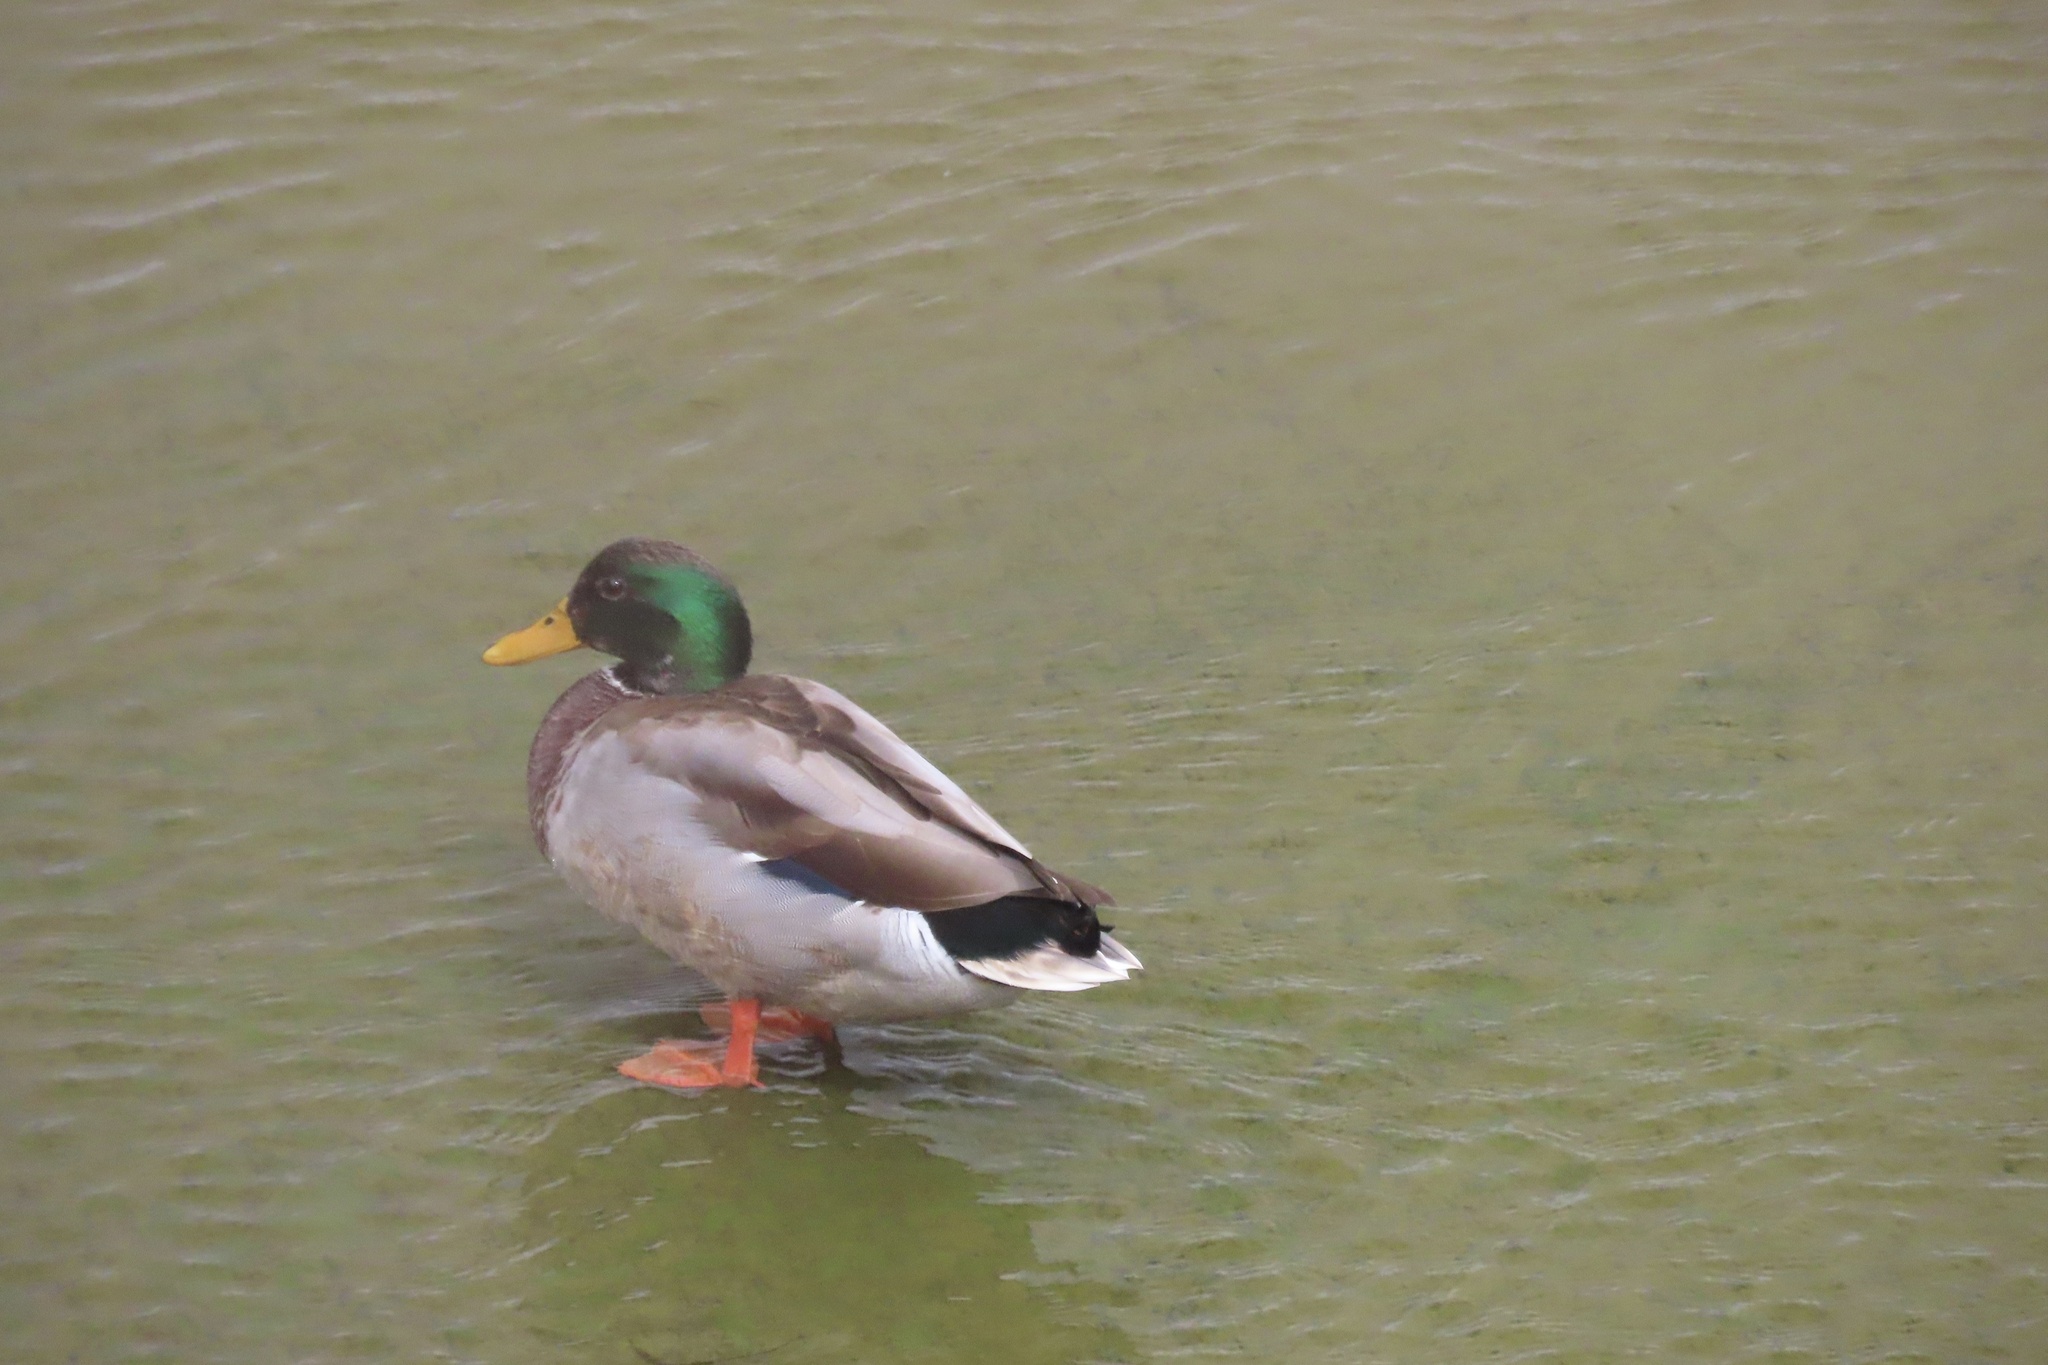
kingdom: Animalia
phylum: Chordata
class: Aves
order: Anseriformes
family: Anatidae
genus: Anas
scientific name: Anas platyrhynchos
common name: Mallard
